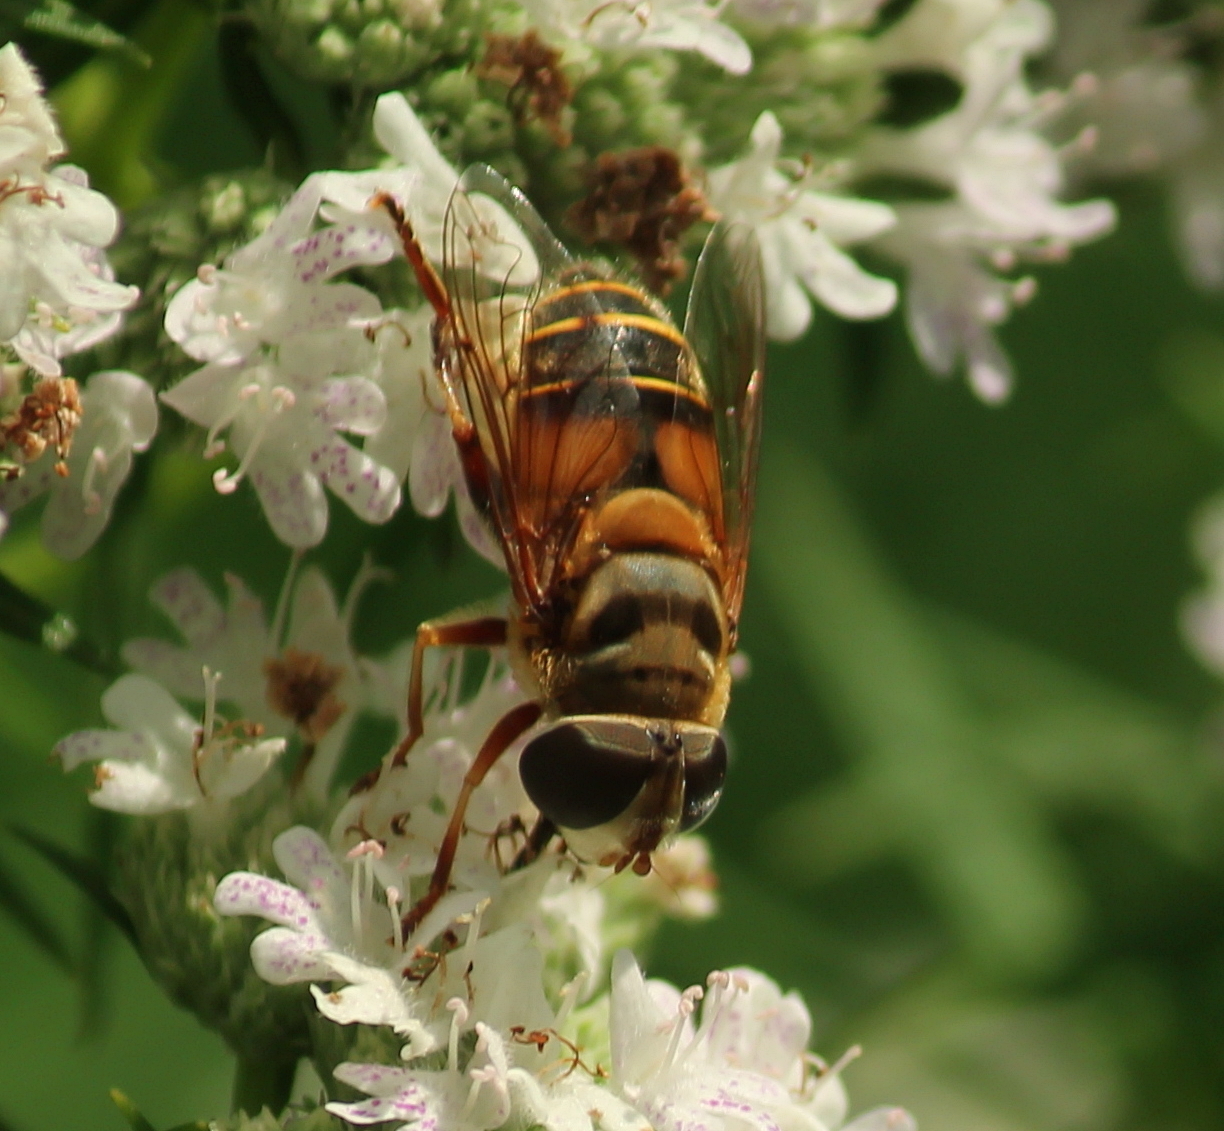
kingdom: Animalia
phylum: Arthropoda
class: Insecta
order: Diptera
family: Syrphidae
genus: Palpada
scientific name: Palpada vinetorum
